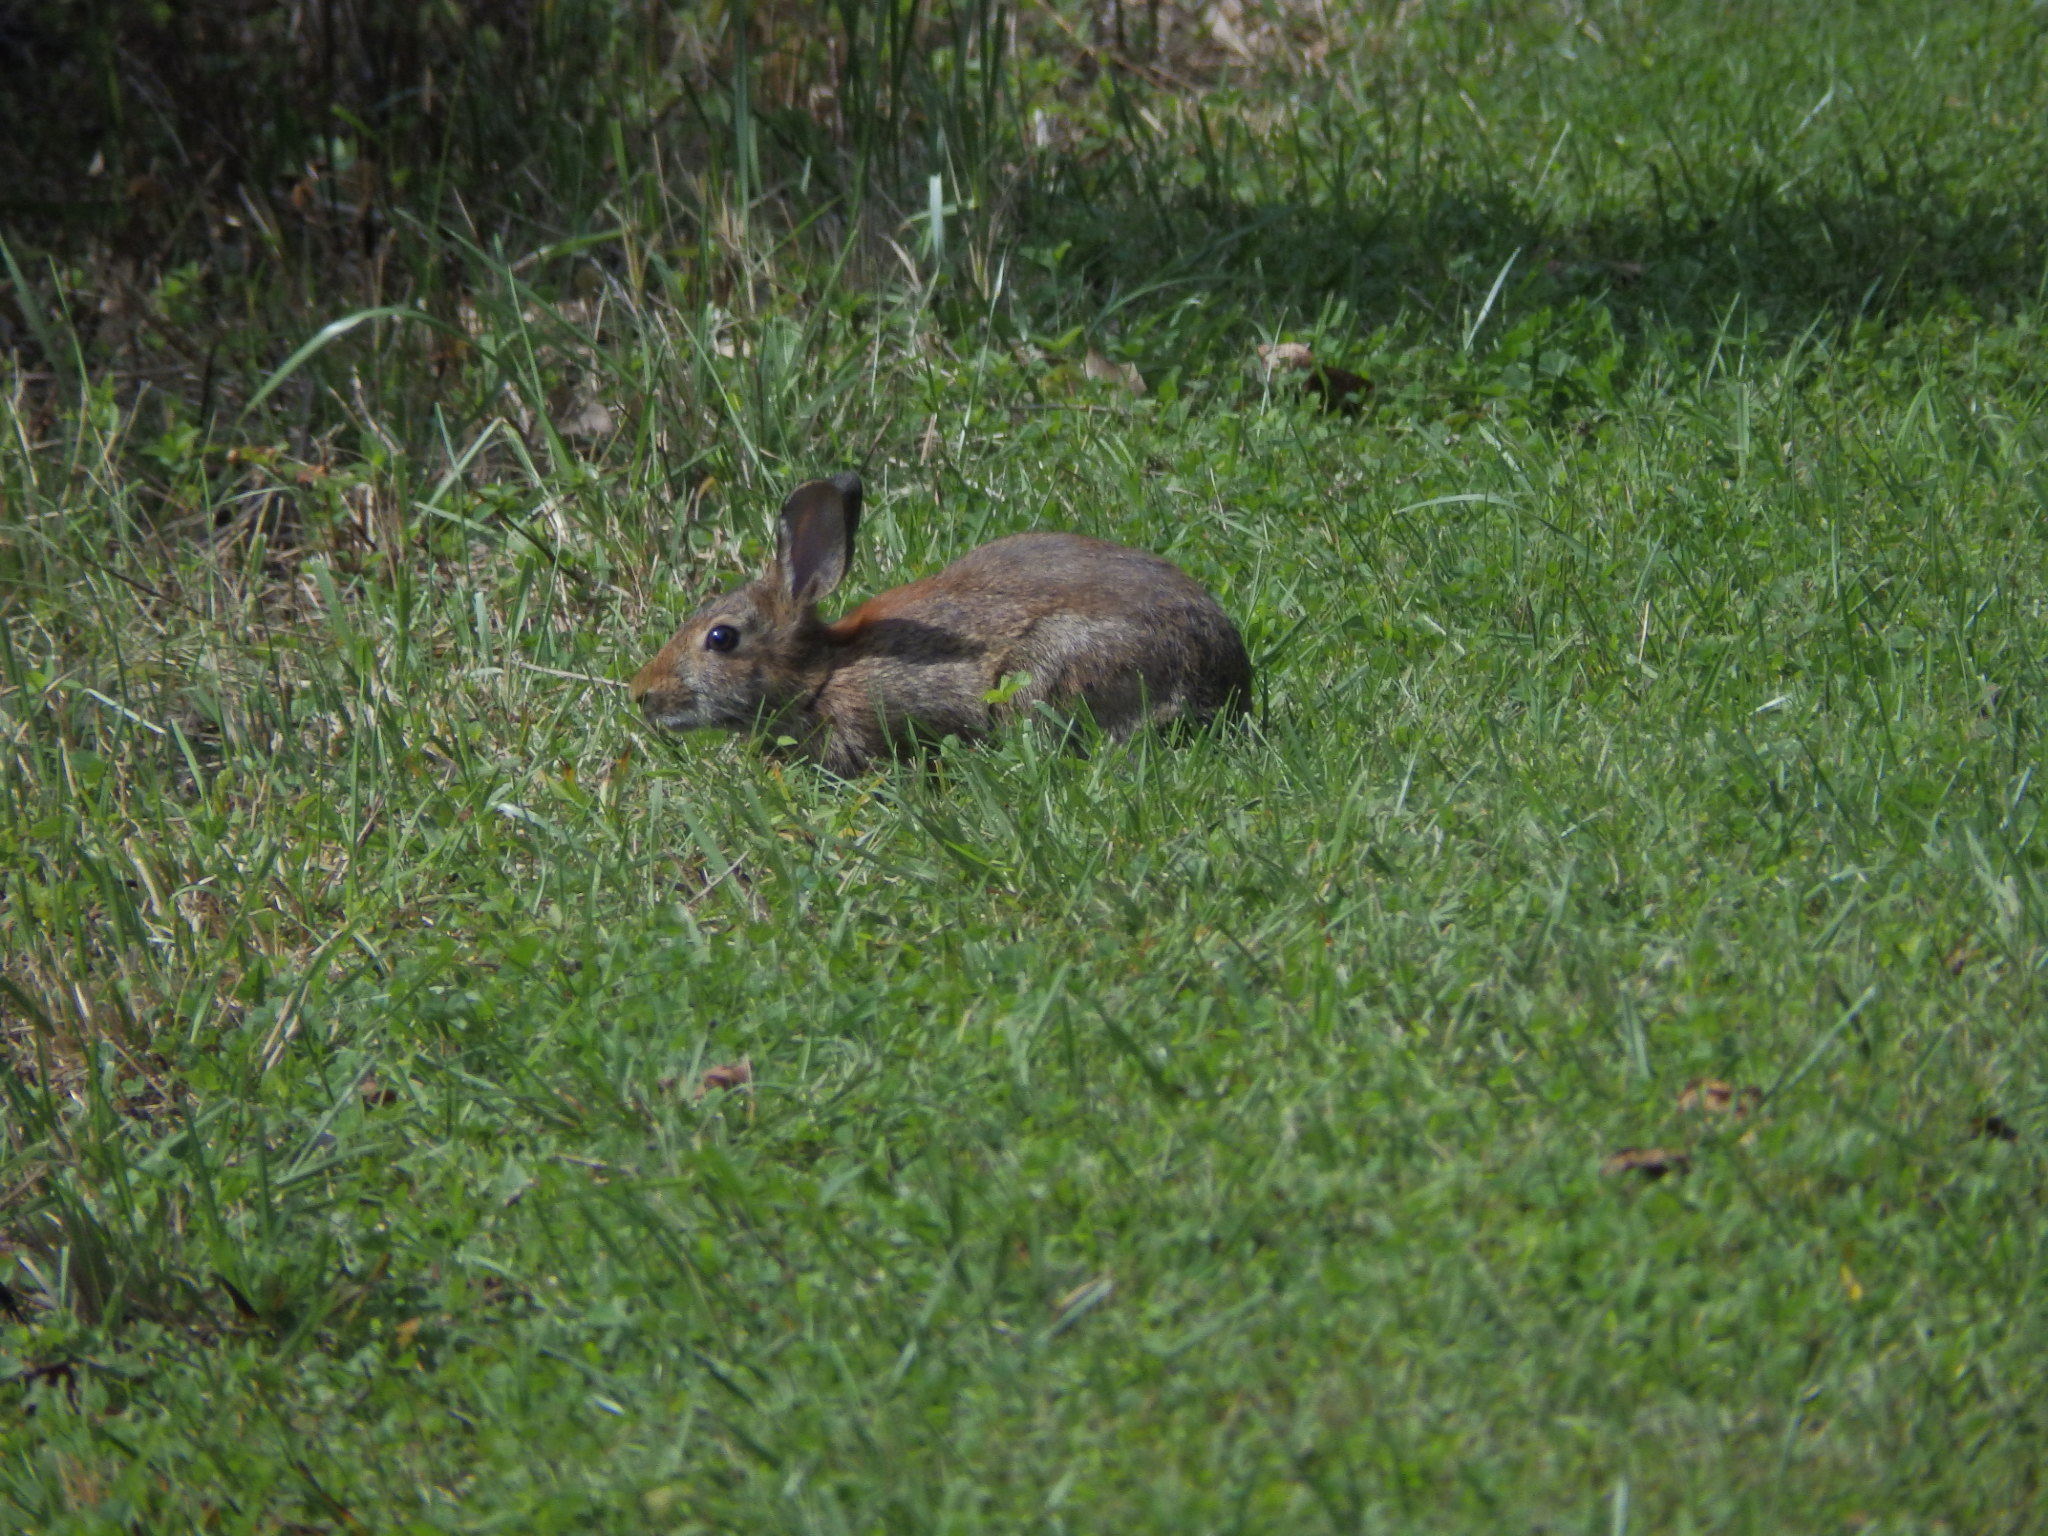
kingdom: Animalia
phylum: Chordata
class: Mammalia
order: Lagomorpha
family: Leporidae
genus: Sylvilagus
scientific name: Sylvilagus floridanus
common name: Eastern cottontail
